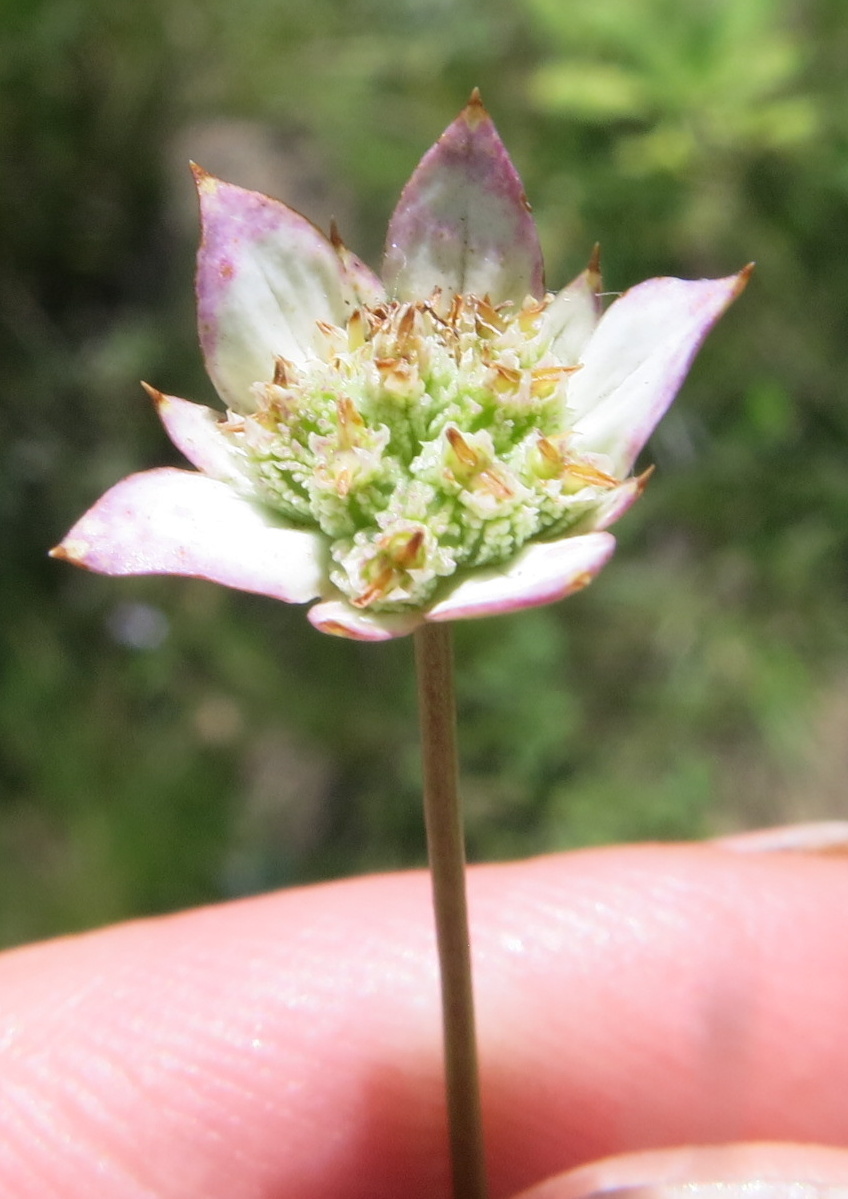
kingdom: Plantae
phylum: Tracheophyta
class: Magnoliopsida
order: Apiales
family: Apiaceae
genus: Alepidea
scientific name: Alepidea natalensis
